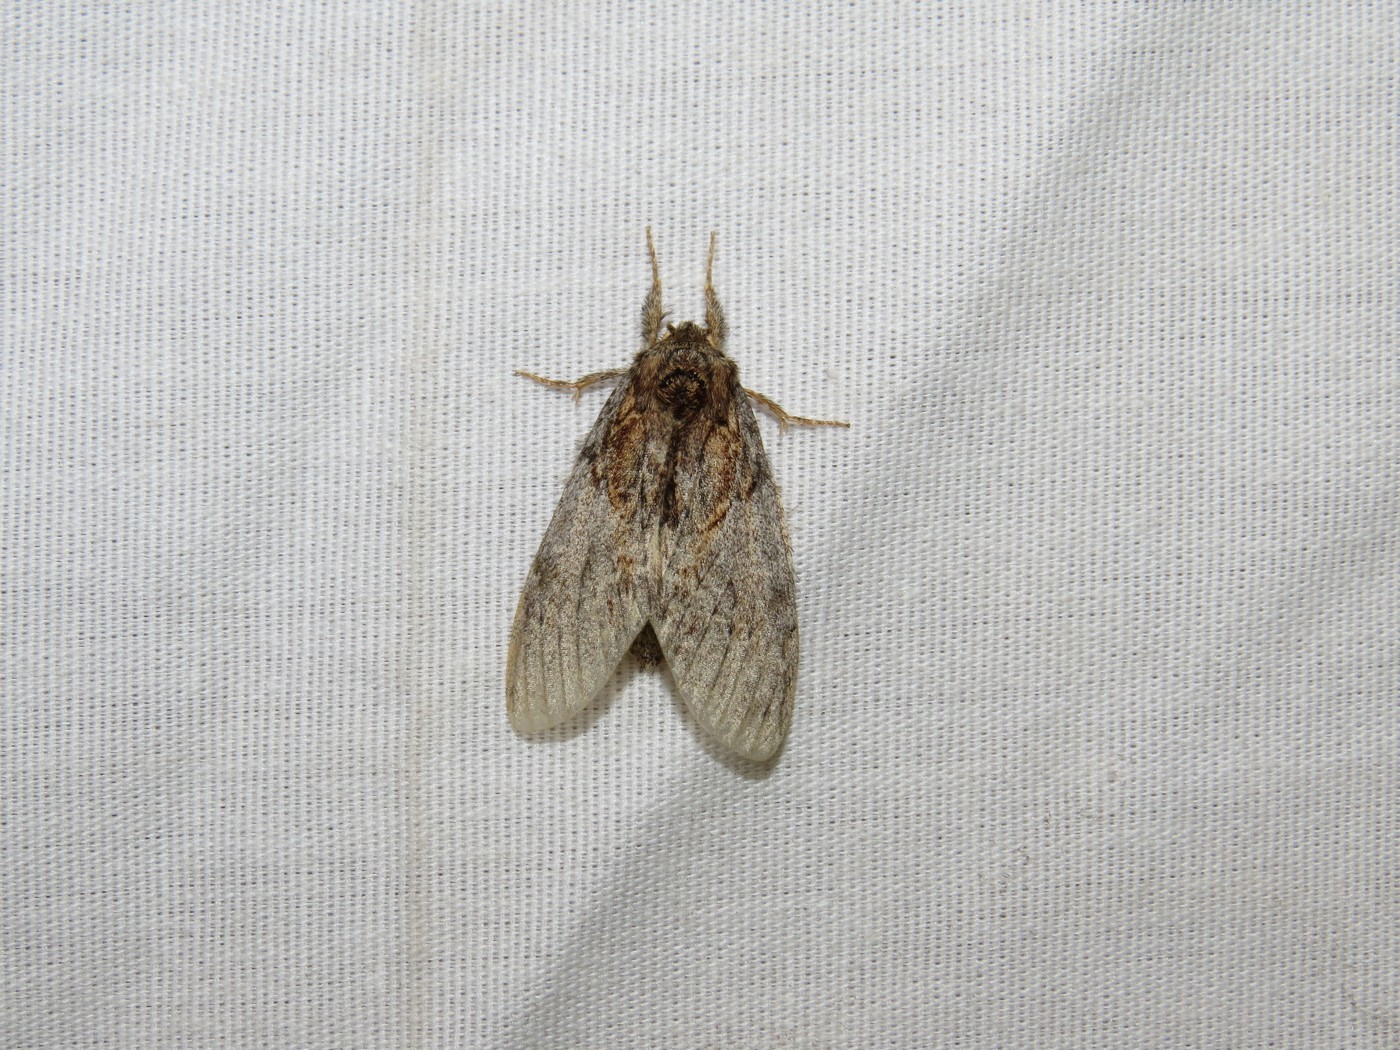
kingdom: Animalia
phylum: Arthropoda
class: Insecta
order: Lepidoptera
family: Notodontidae
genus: Peridea
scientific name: Peridea basitriens
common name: Oval-based prominent
